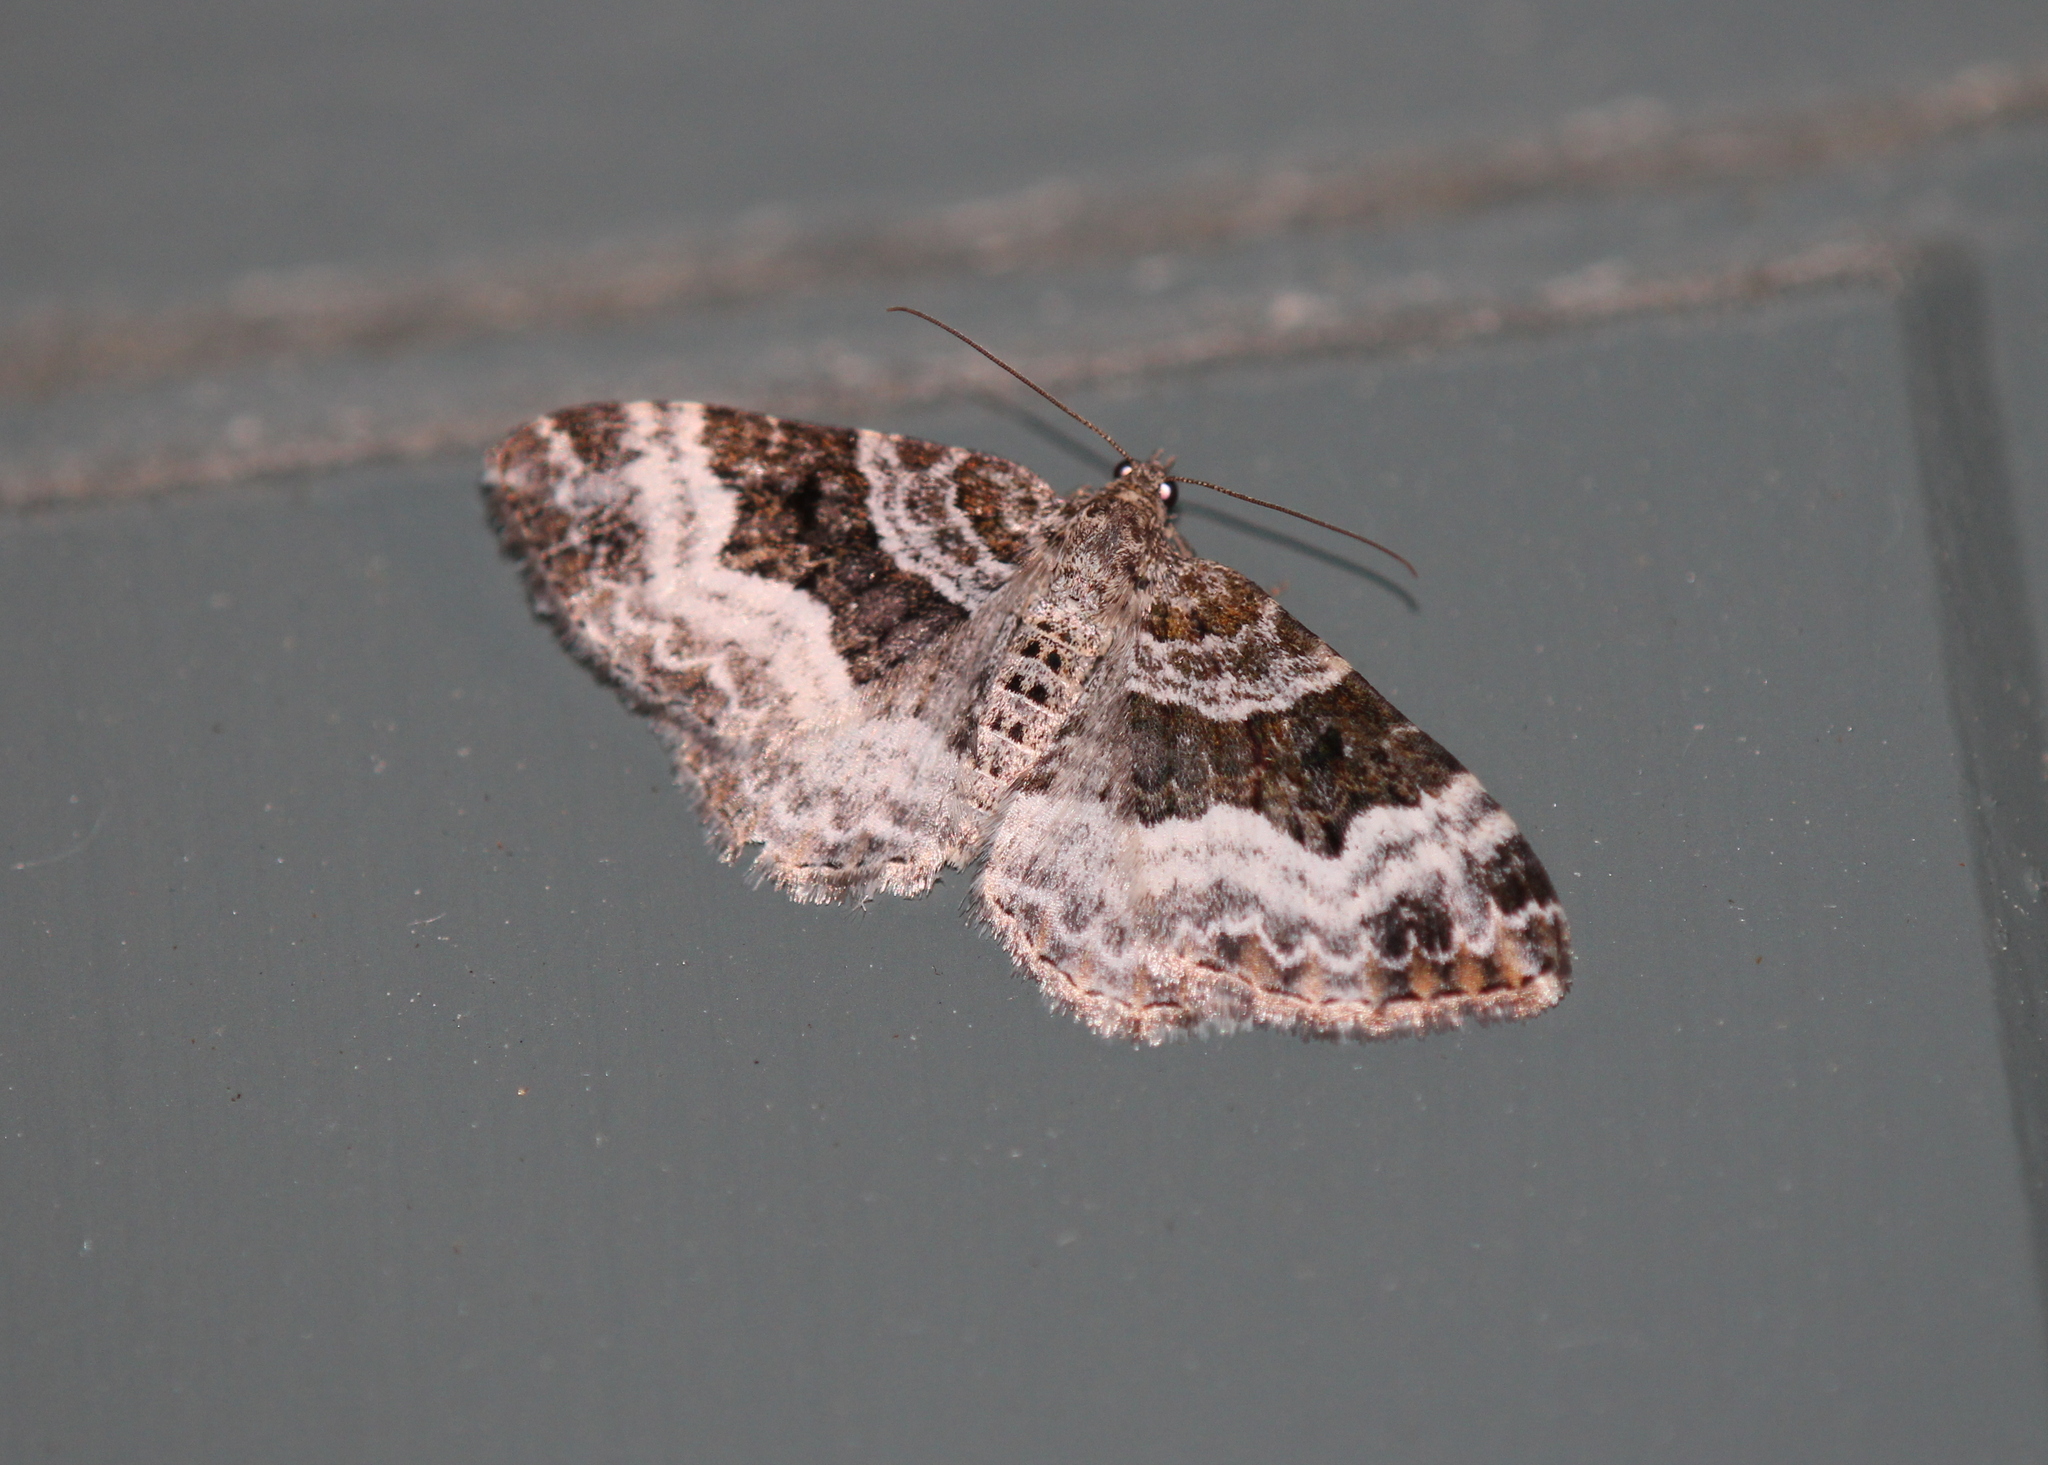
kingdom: Animalia
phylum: Arthropoda
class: Insecta
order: Lepidoptera
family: Geometridae
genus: Euphyia
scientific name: Euphyia intermediata
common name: Sharp-angled carpet
